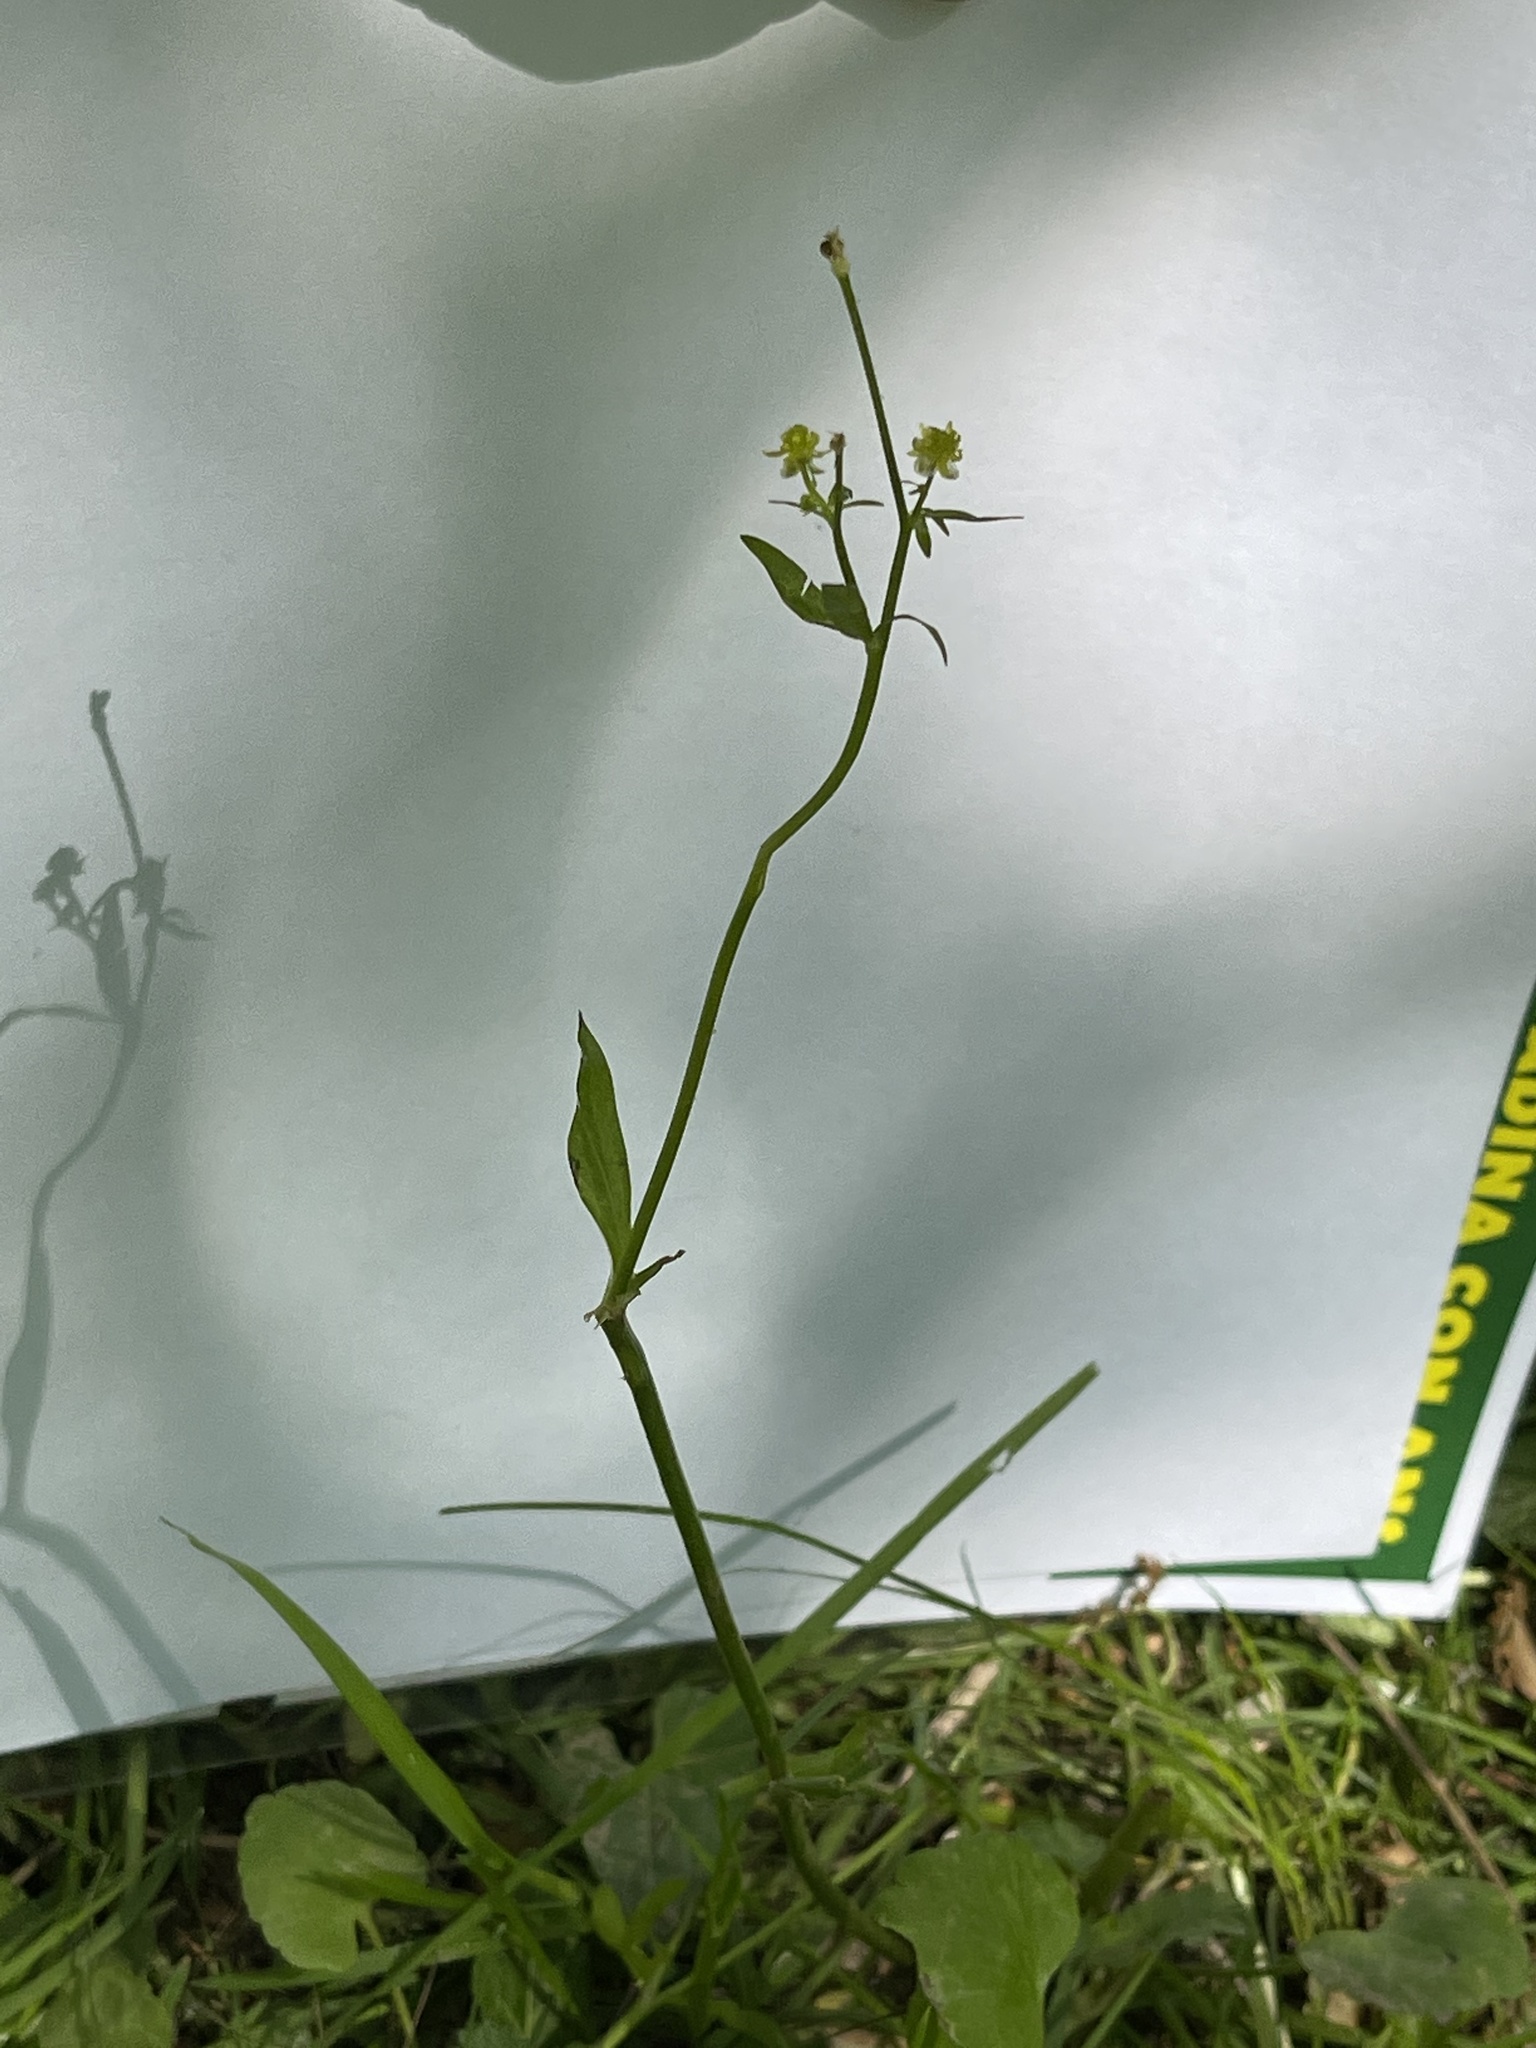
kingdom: Plantae
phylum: Tracheophyta
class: Magnoliopsida
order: Ranunculales
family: Ranunculaceae
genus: Ranunculus
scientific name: Ranunculus abortivus
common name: Early wood buttercup
